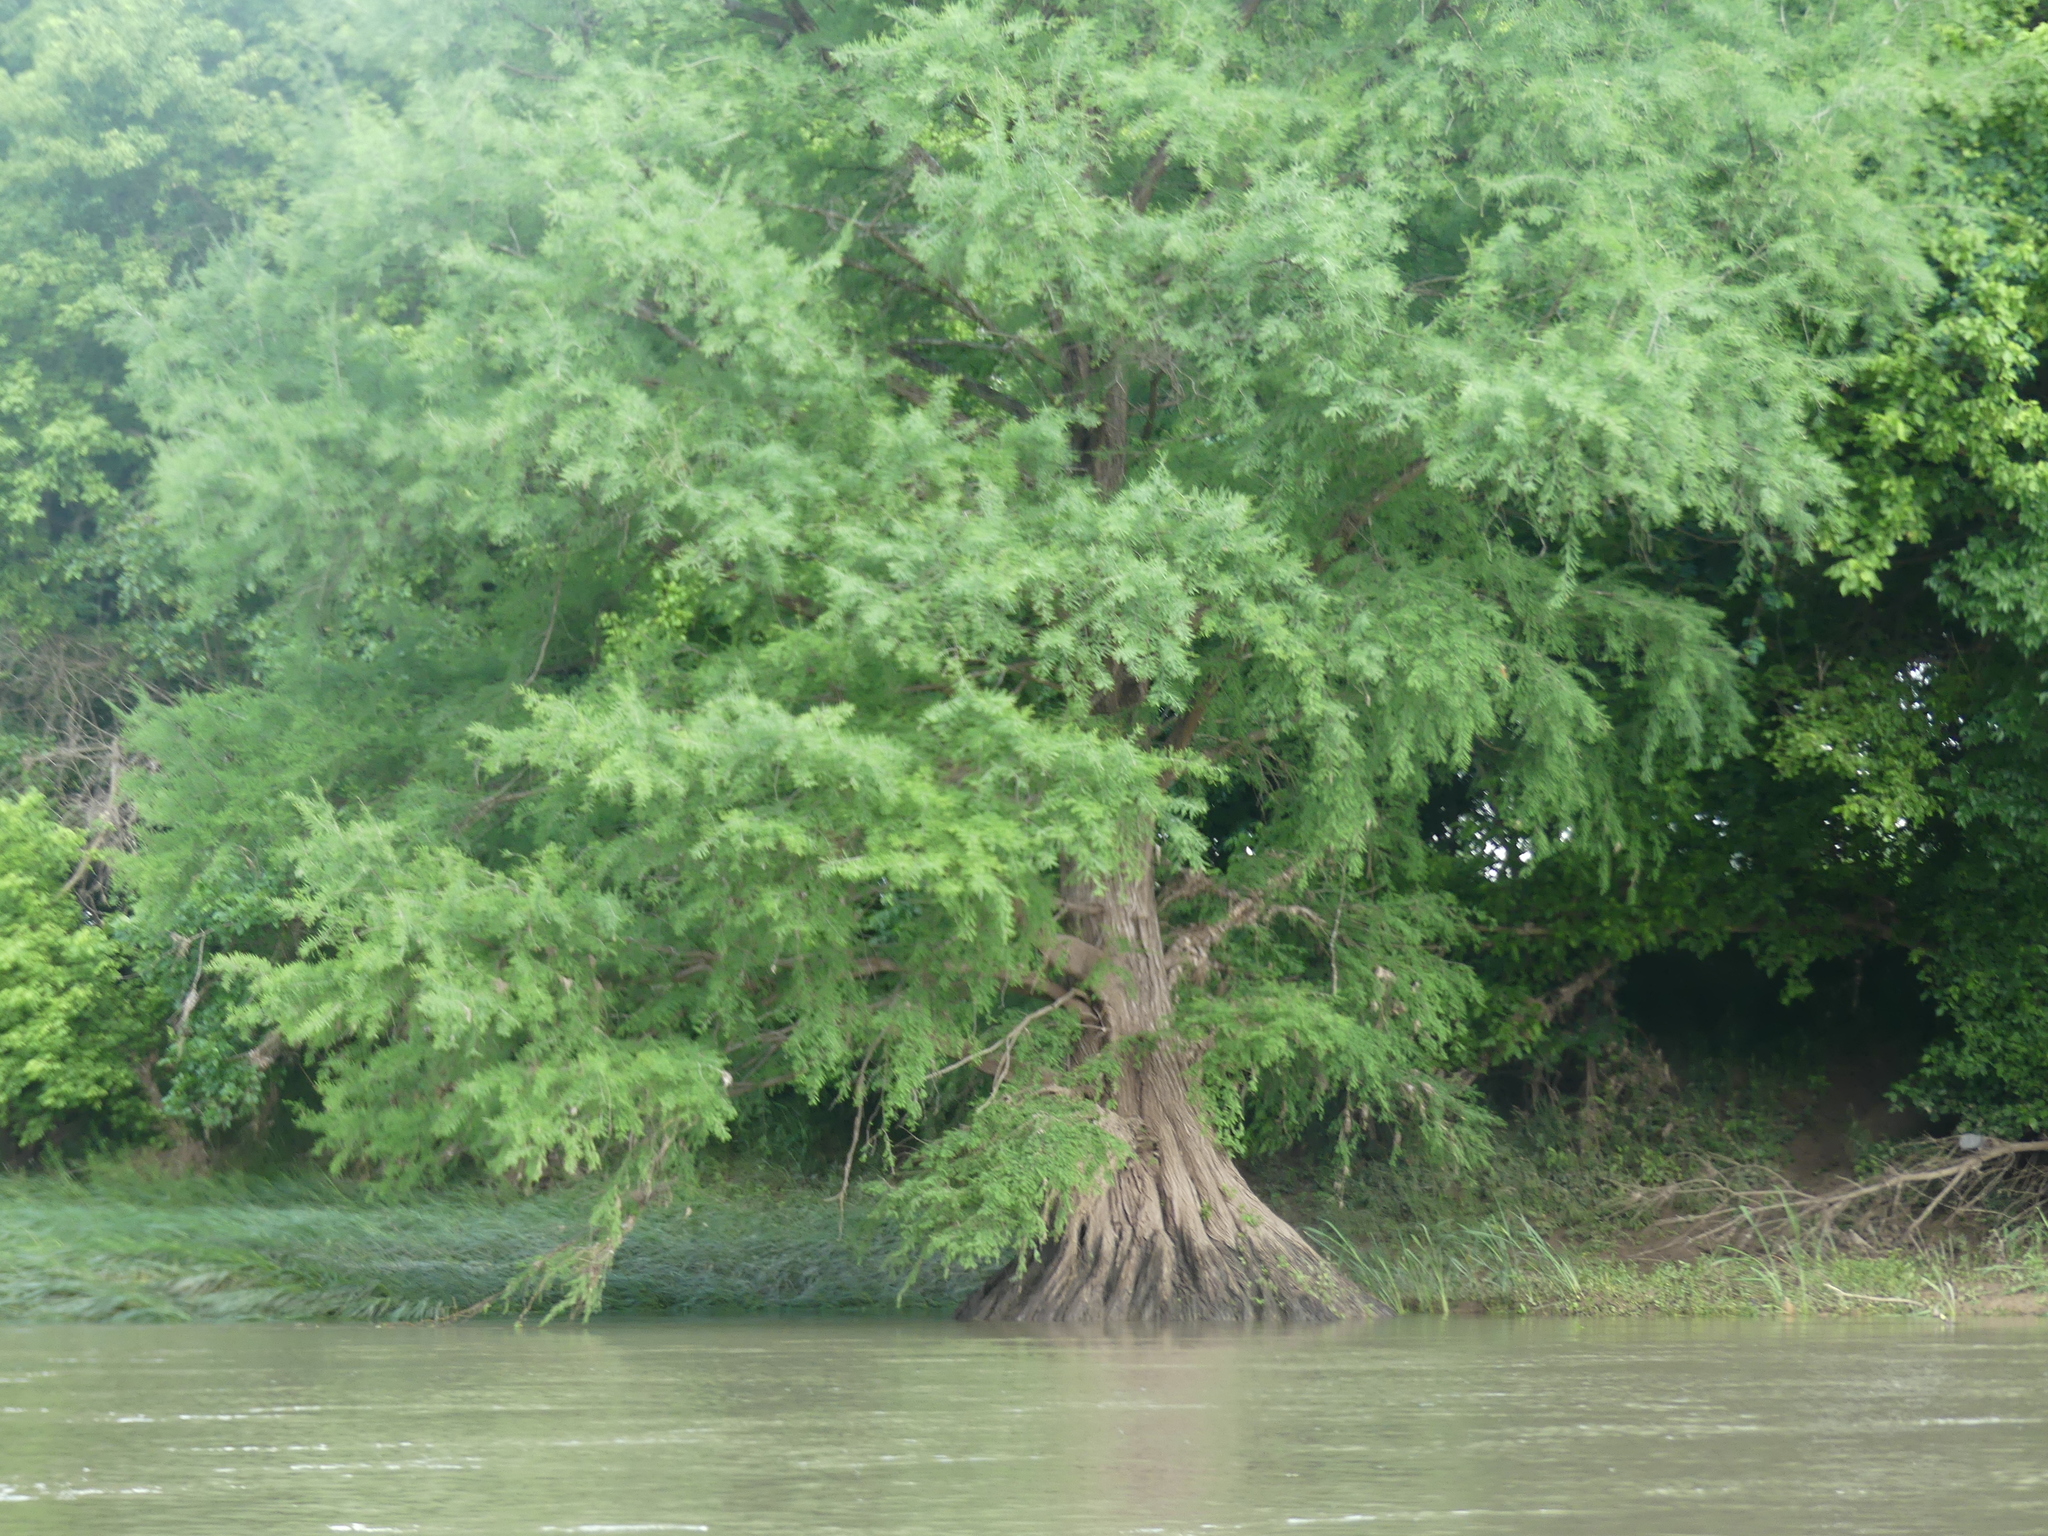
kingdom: Plantae
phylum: Tracheophyta
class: Pinopsida
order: Pinales
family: Cupressaceae
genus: Taxodium
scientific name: Taxodium distichum
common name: Bald cypress
